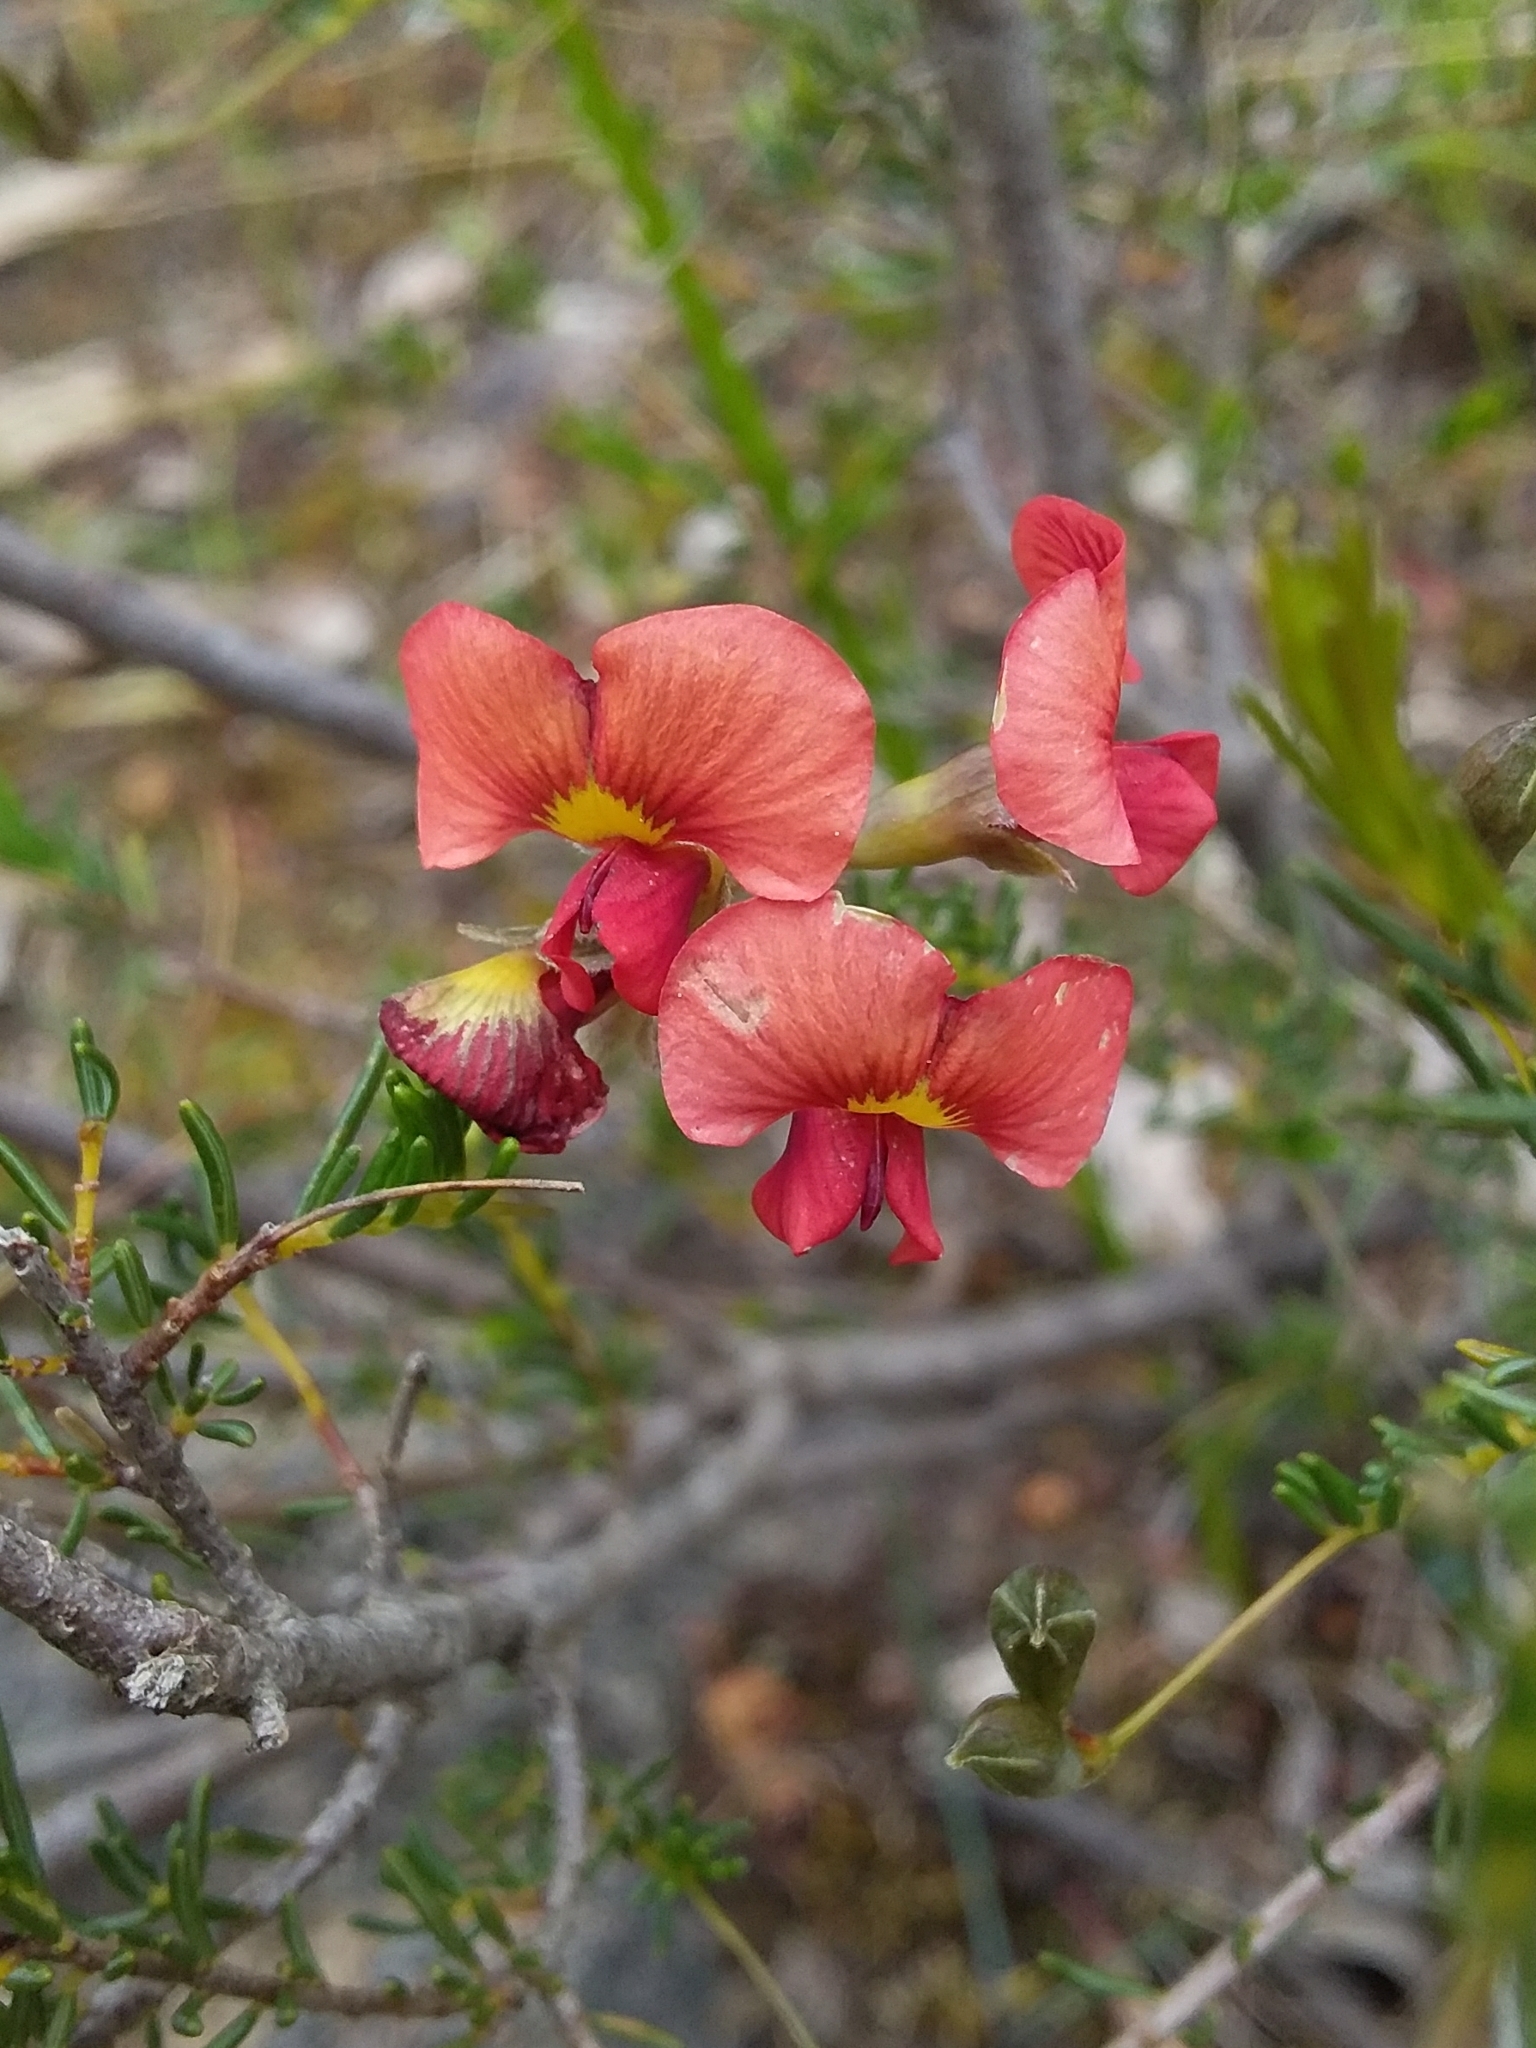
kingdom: Plantae
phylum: Tracheophyta
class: Magnoliopsida
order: Fabales
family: Fabaceae
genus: Dillwynia
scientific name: Dillwynia hispida
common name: Red parrot-pea
